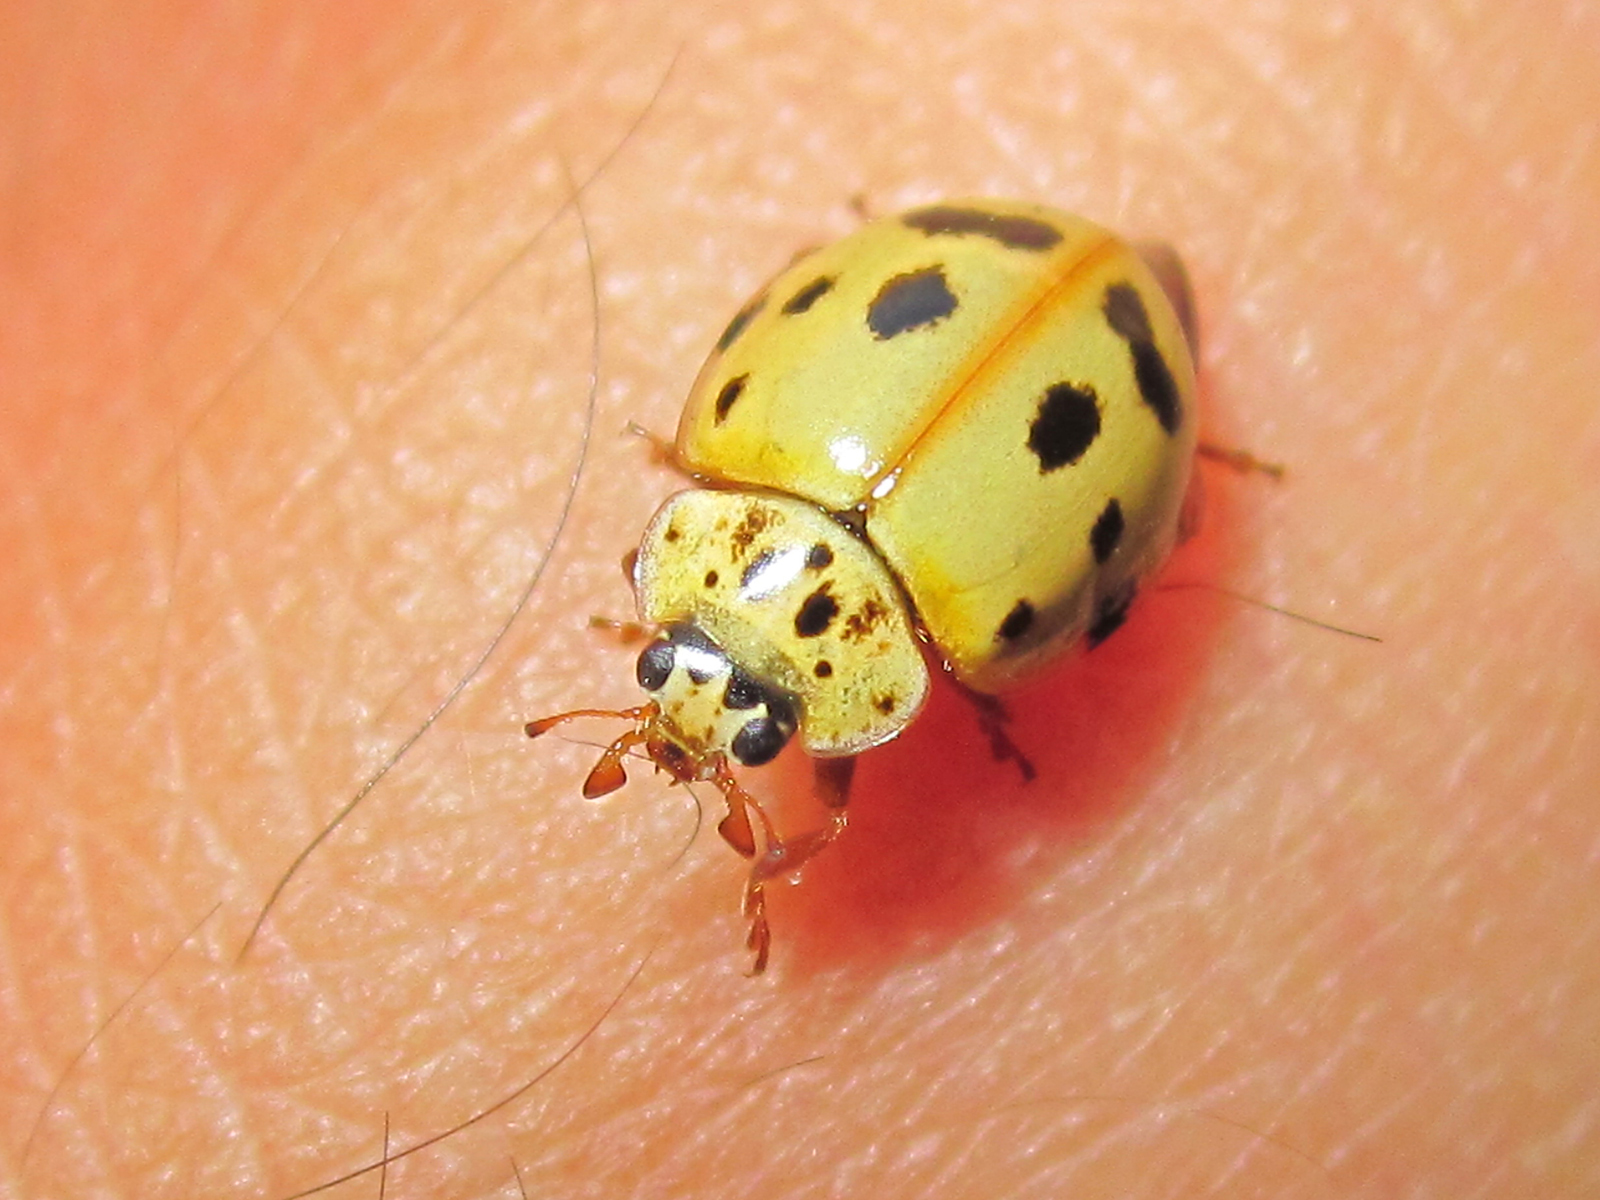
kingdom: Animalia
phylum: Arthropoda
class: Insecta
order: Coleoptera
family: Coccinellidae
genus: Harmonia
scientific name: Harmonia quadripunctata
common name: Cream-streaked ladybird
